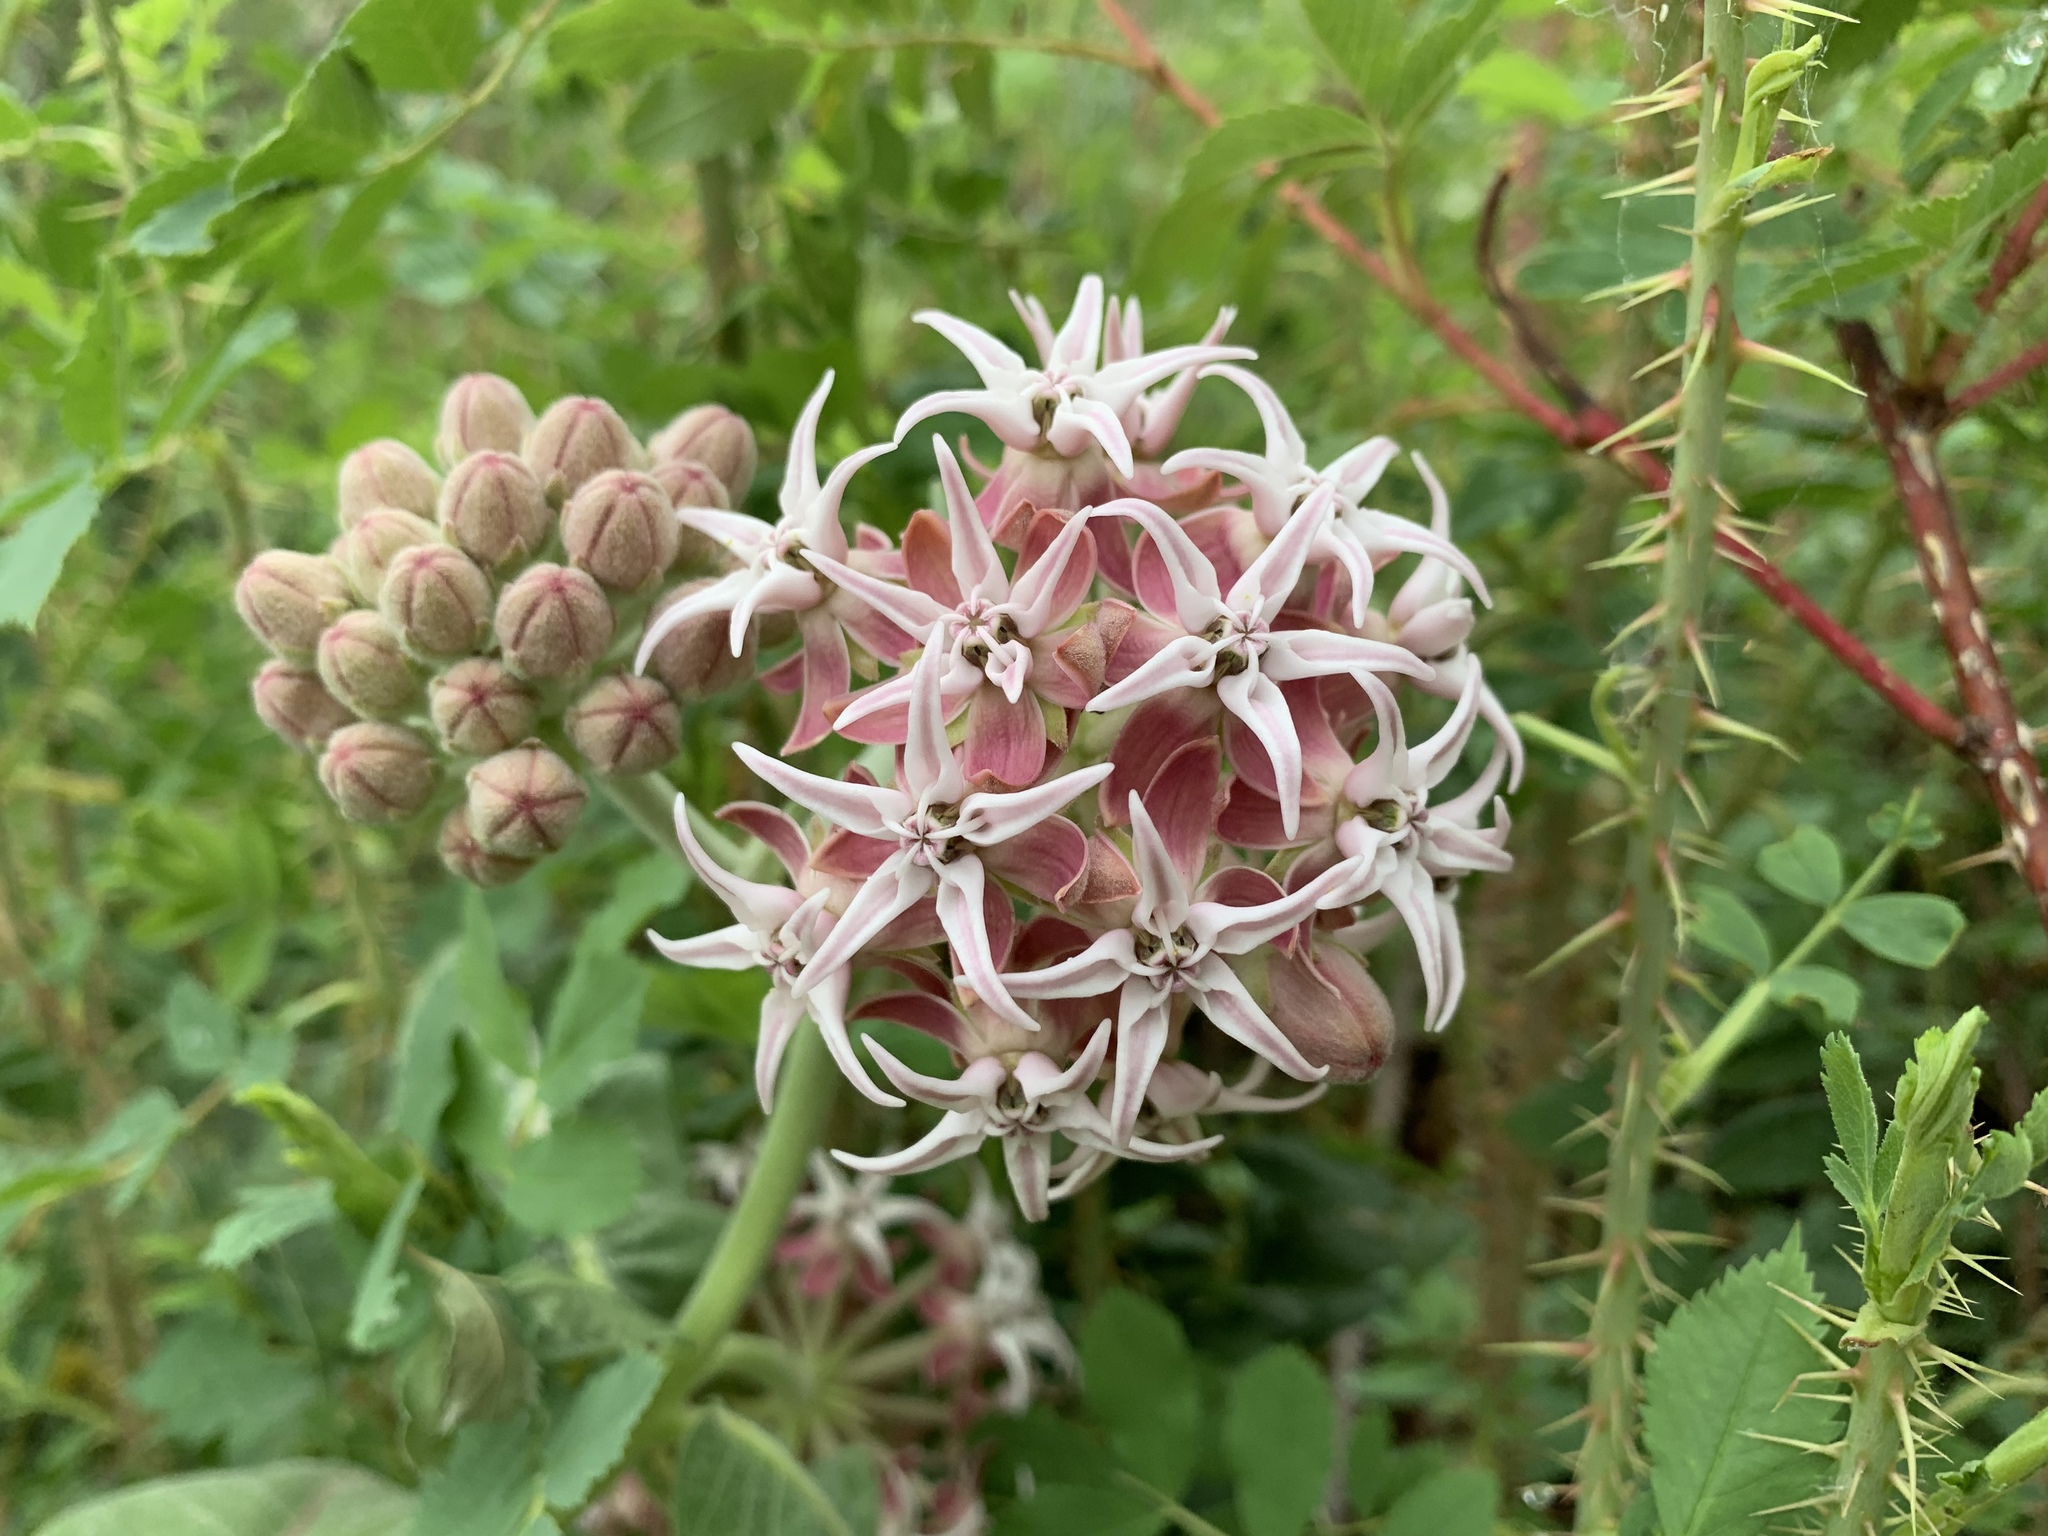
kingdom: Plantae
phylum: Tracheophyta
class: Magnoliopsida
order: Gentianales
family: Apocynaceae
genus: Asclepias
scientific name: Asclepias speciosa
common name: Showy milkweed
